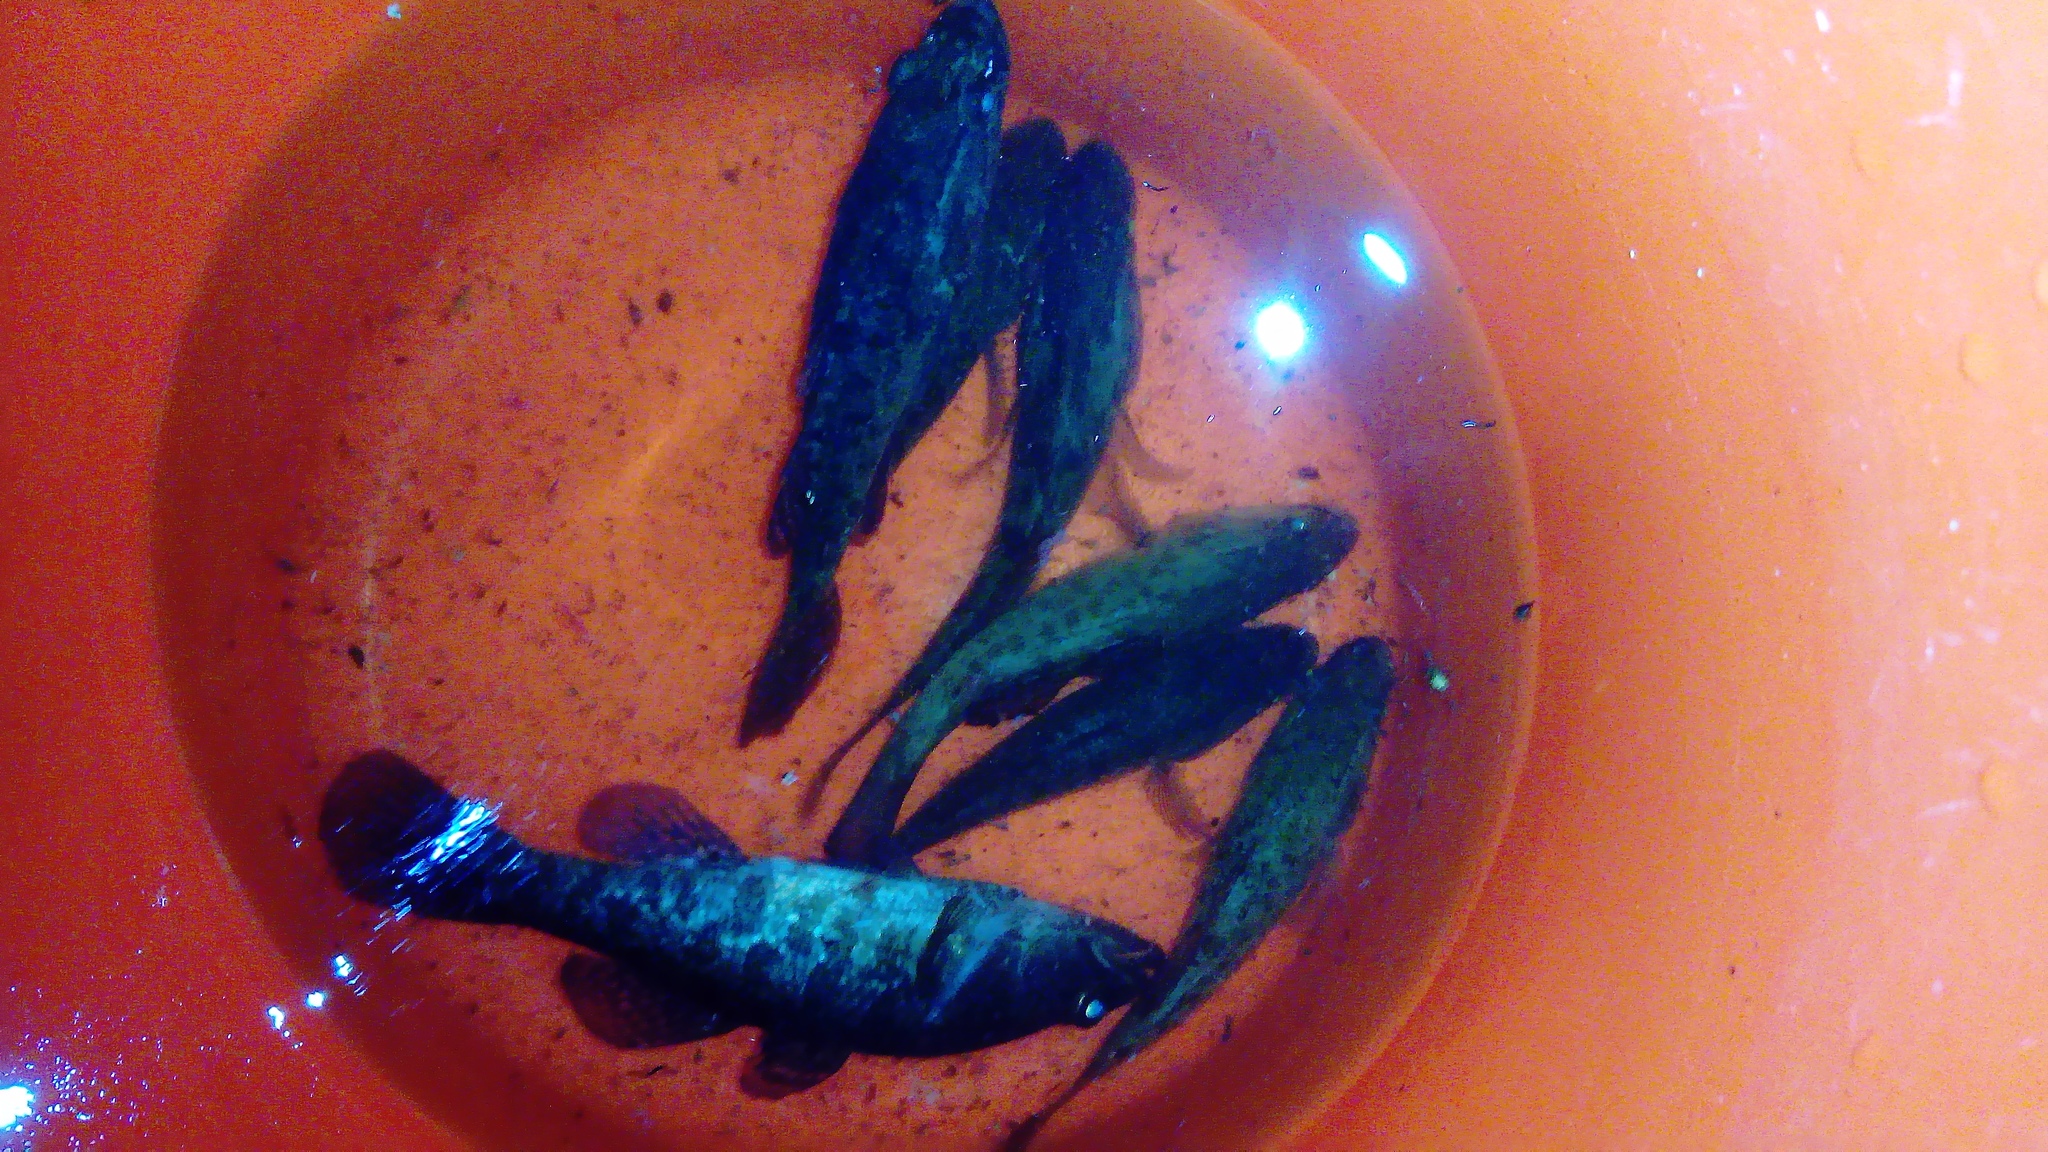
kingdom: Animalia
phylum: Chordata
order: Perciformes
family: Odontobutidae
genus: Perccottus
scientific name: Perccottus glenii
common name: Amur sleeper
